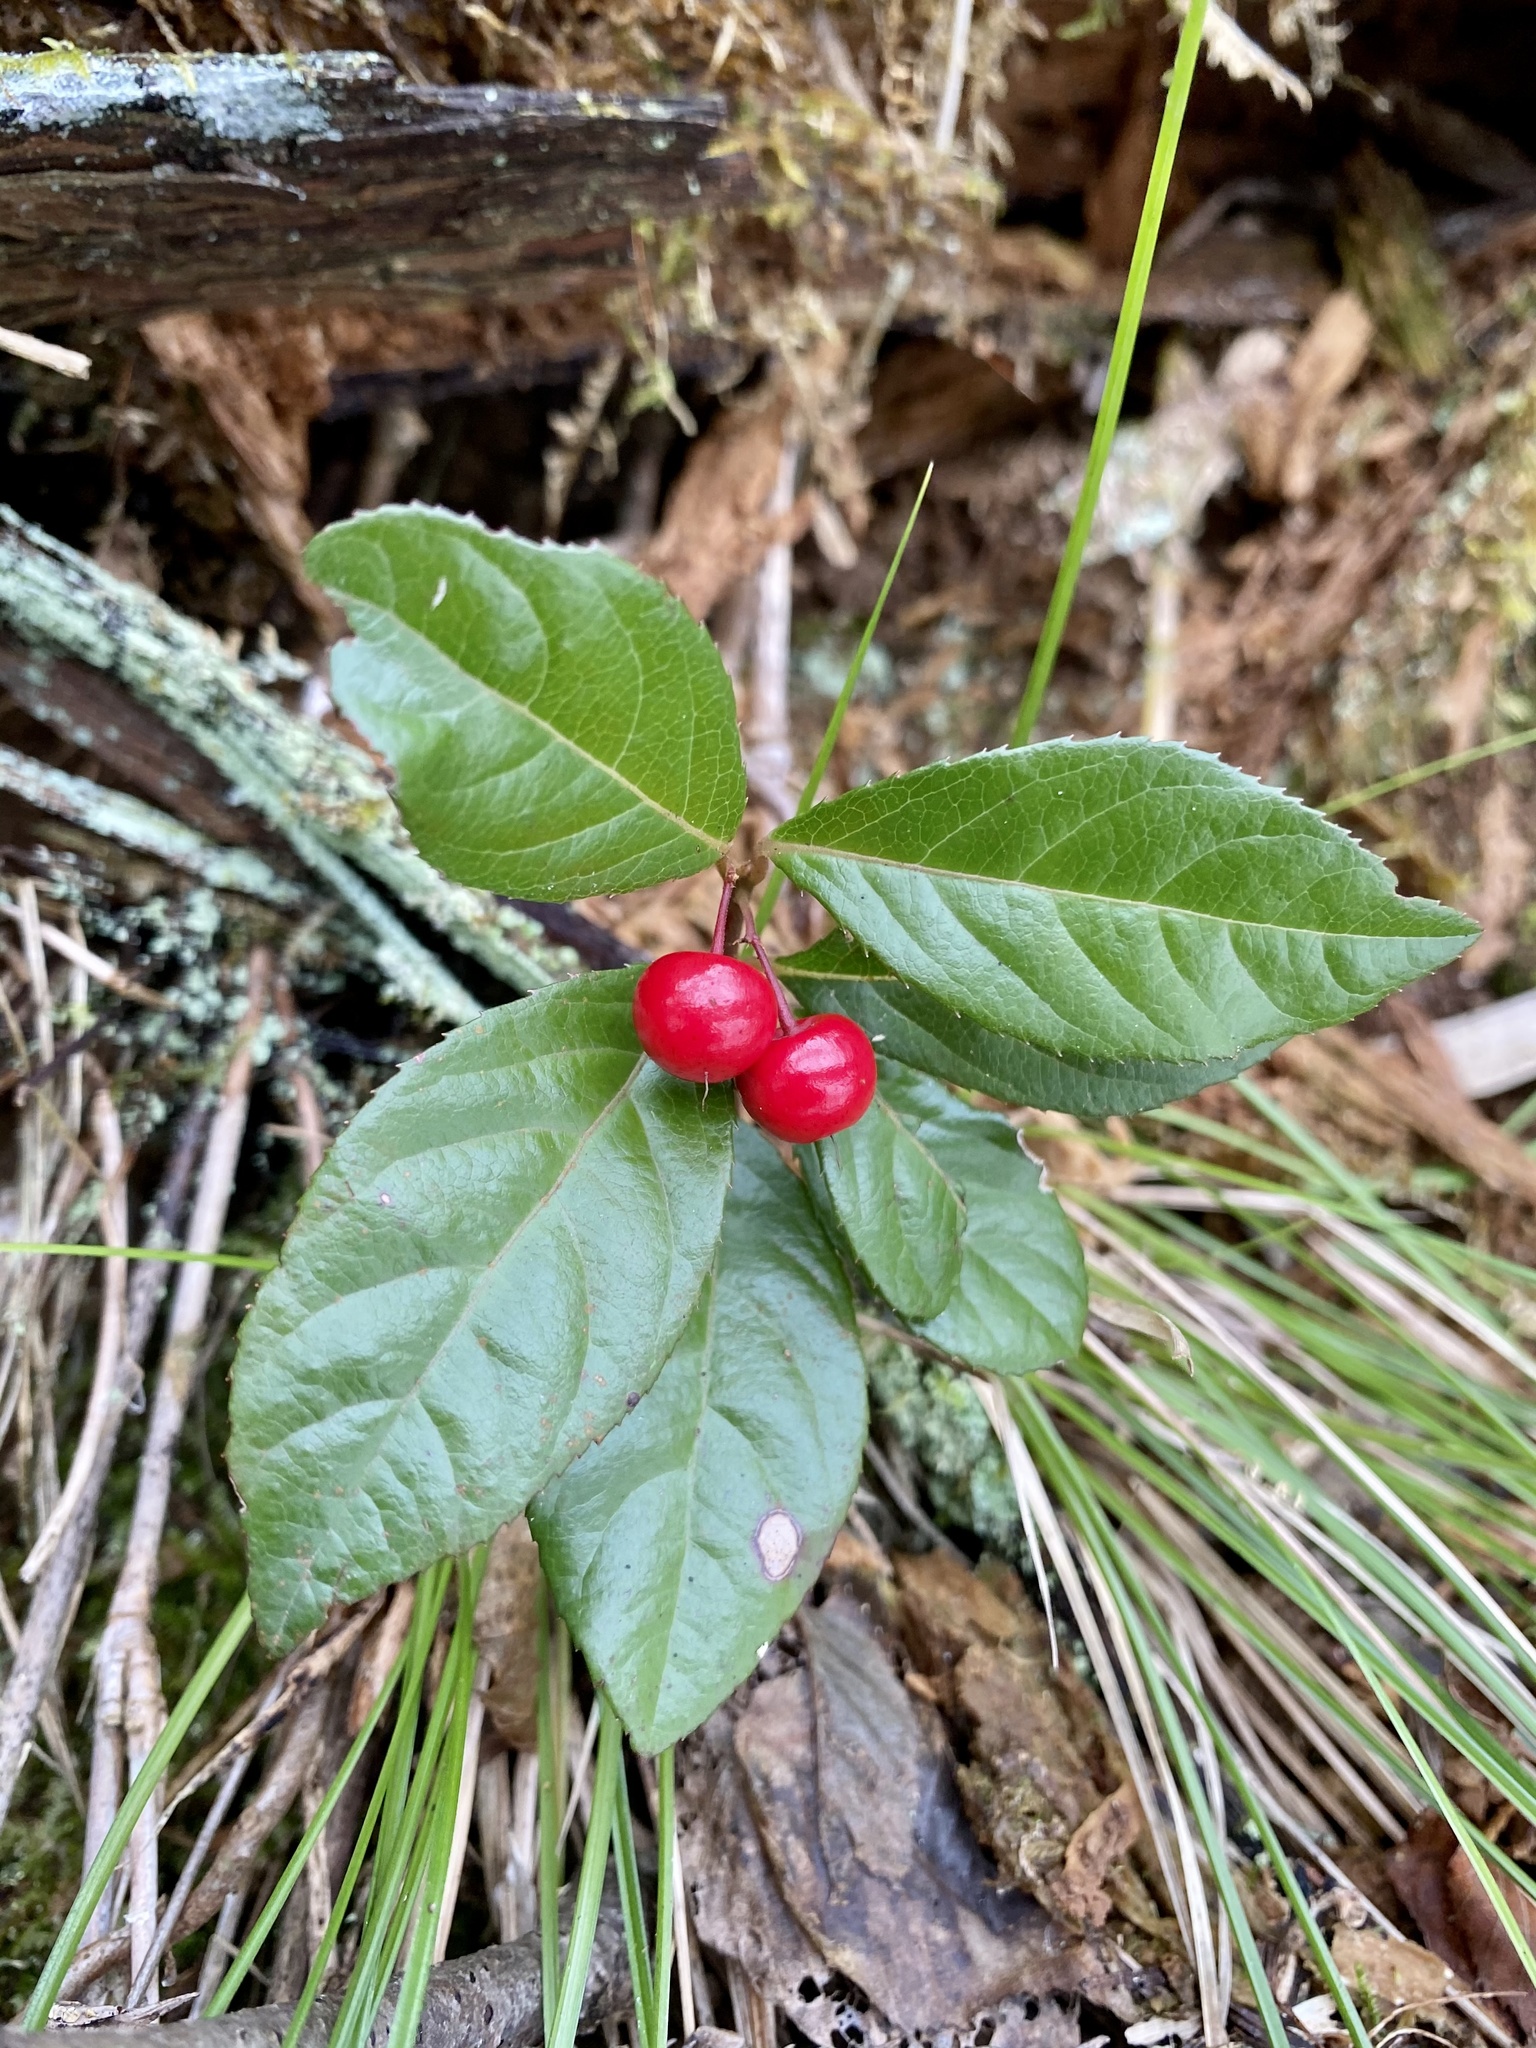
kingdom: Plantae
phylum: Tracheophyta
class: Magnoliopsida
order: Ericales
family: Primulaceae
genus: Ardisia
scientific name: Ardisia japonica
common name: Marlberry
